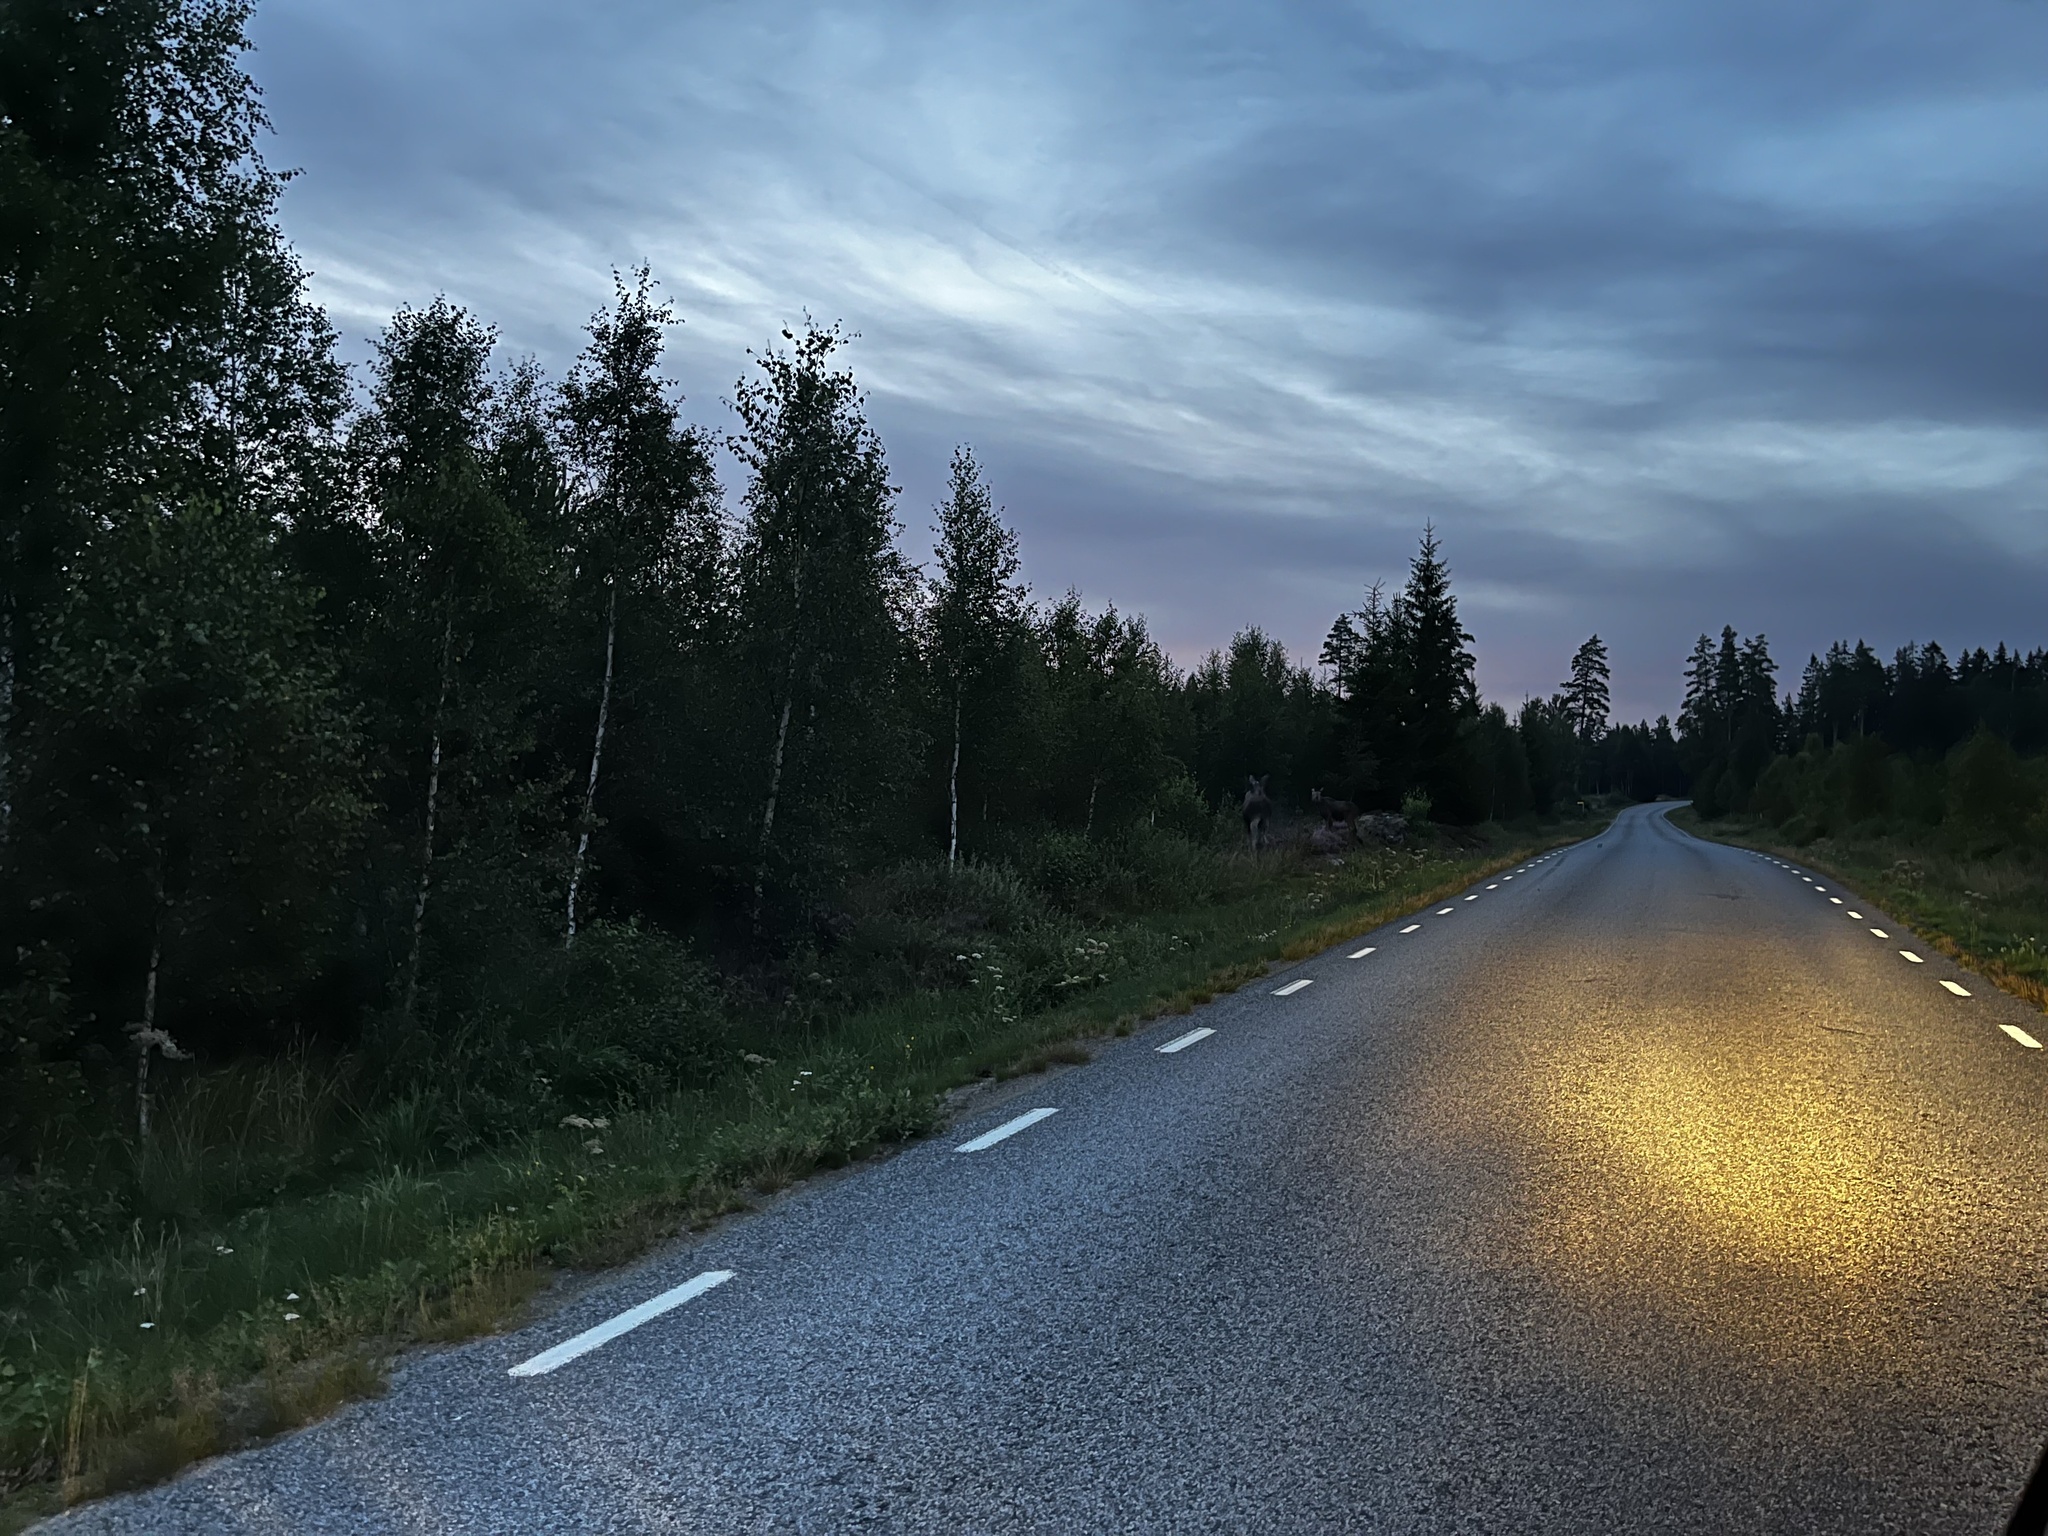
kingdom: Animalia
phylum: Chordata
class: Mammalia
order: Artiodactyla
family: Cervidae
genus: Alces
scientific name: Alces alces
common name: Moose
